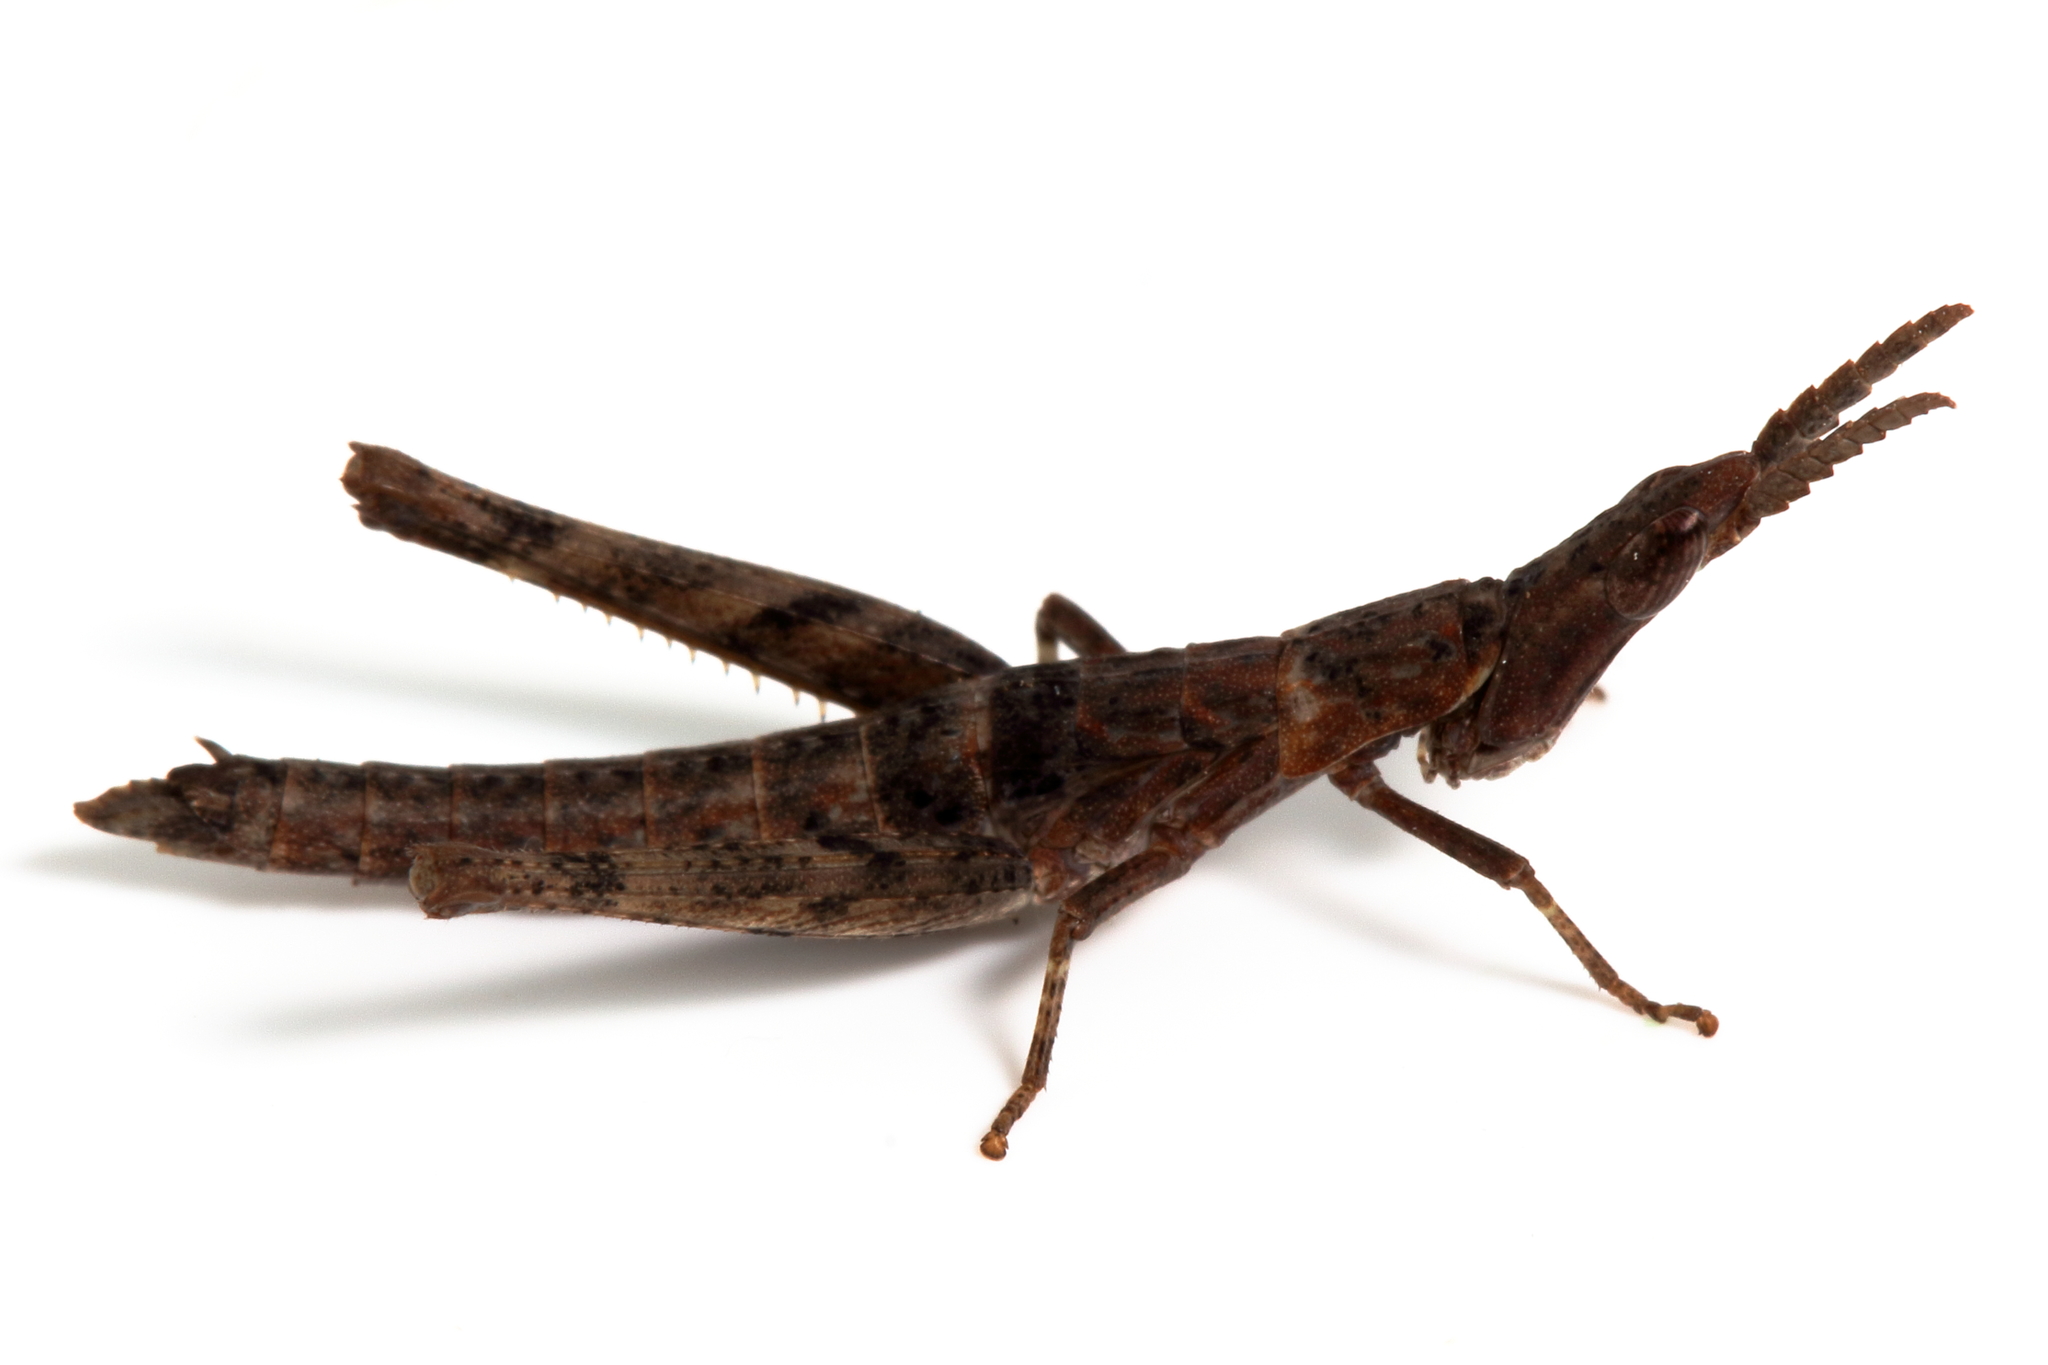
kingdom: Animalia
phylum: Arthropoda
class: Insecta
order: Orthoptera
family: Morabidae
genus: Vandiemenella
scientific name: Vandiemenella viatica
